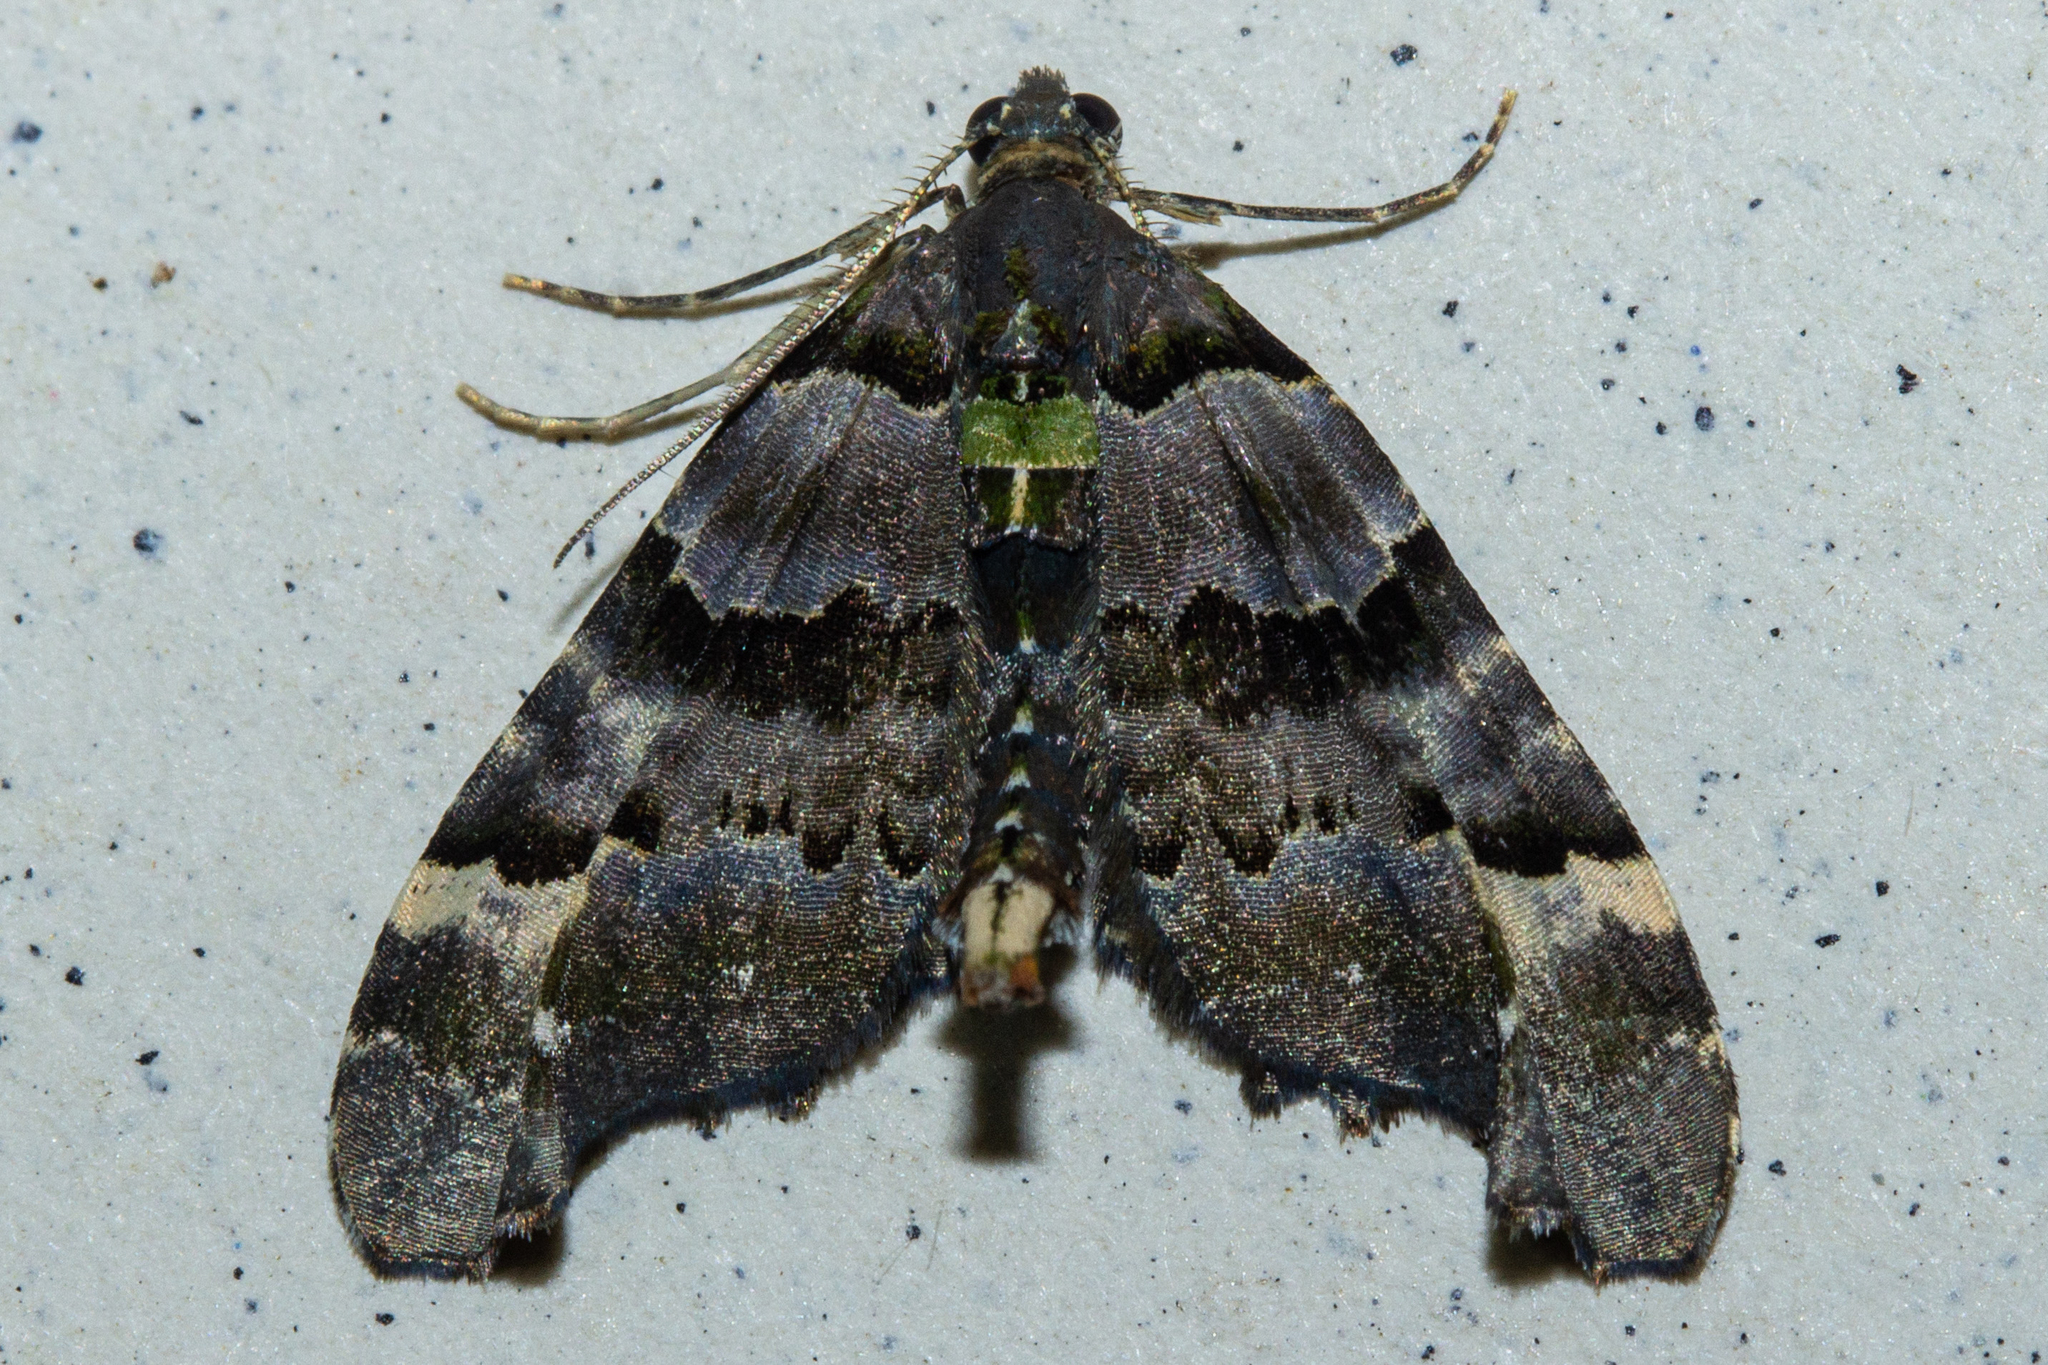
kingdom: Animalia
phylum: Arthropoda
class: Insecta
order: Lepidoptera
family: Geometridae
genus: Elvia
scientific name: Elvia glaucata
